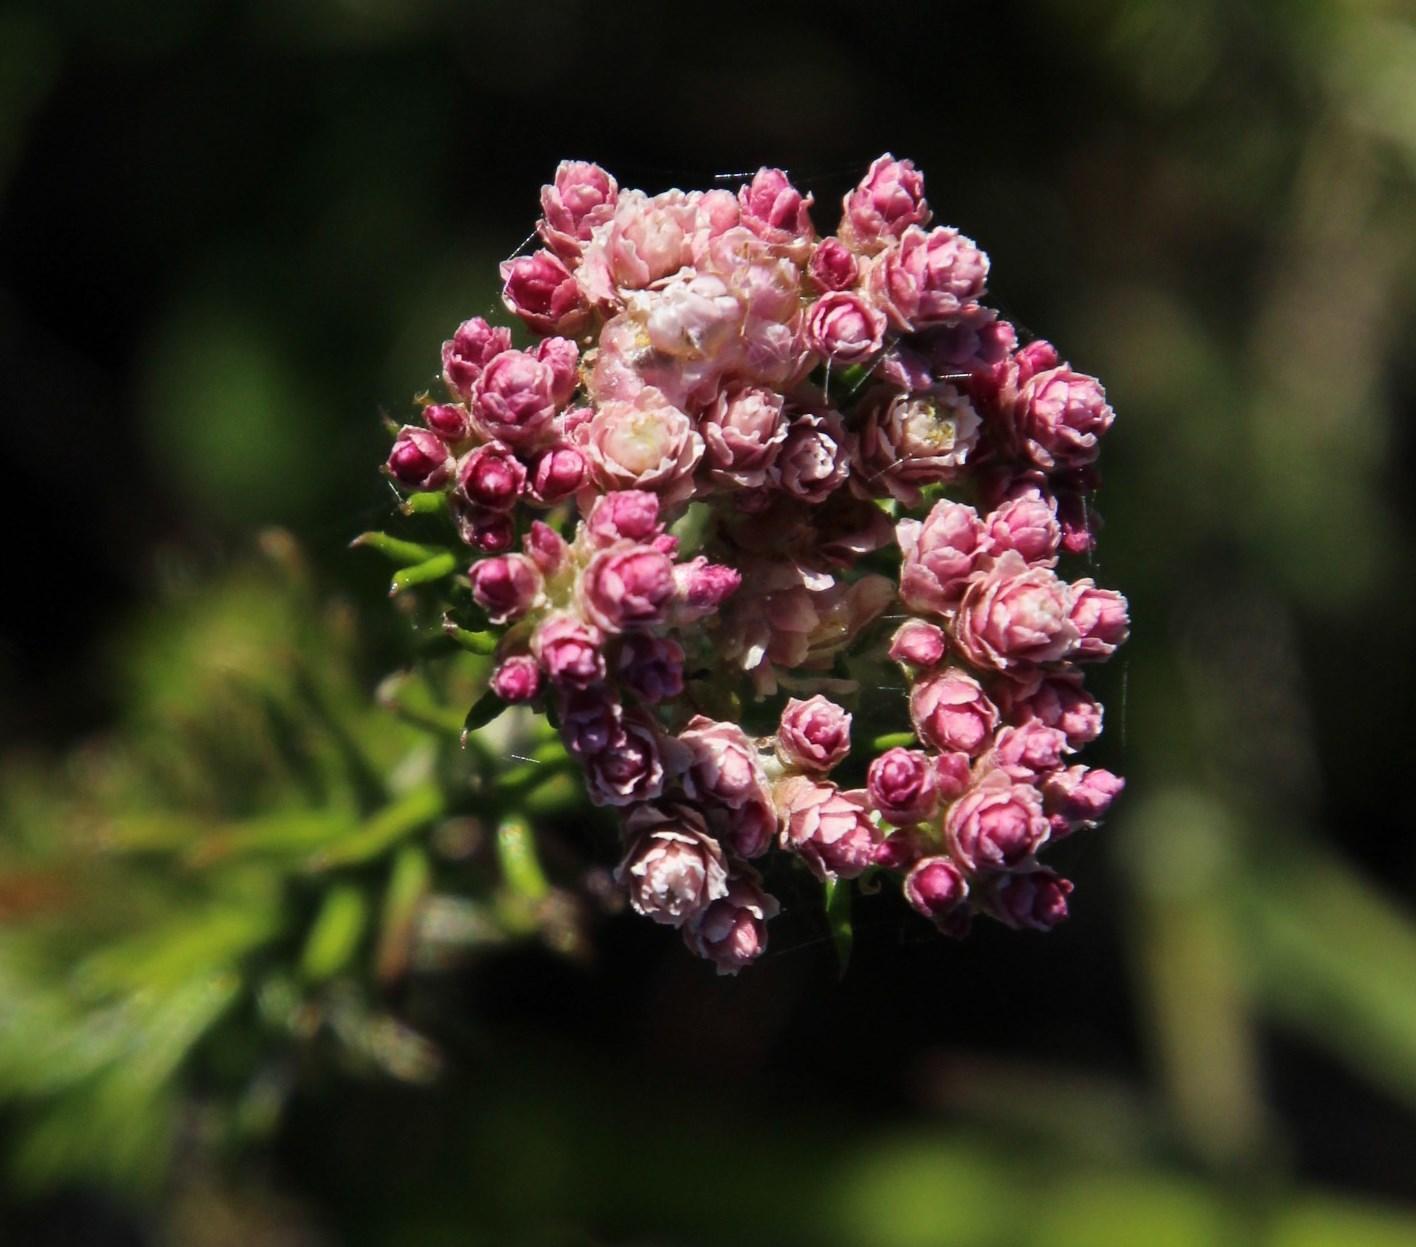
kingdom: Plantae
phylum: Tracheophyta
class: Magnoliopsida
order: Asterales
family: Asteraceae
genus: Helichrysum
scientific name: Helichrysum teretifolium
